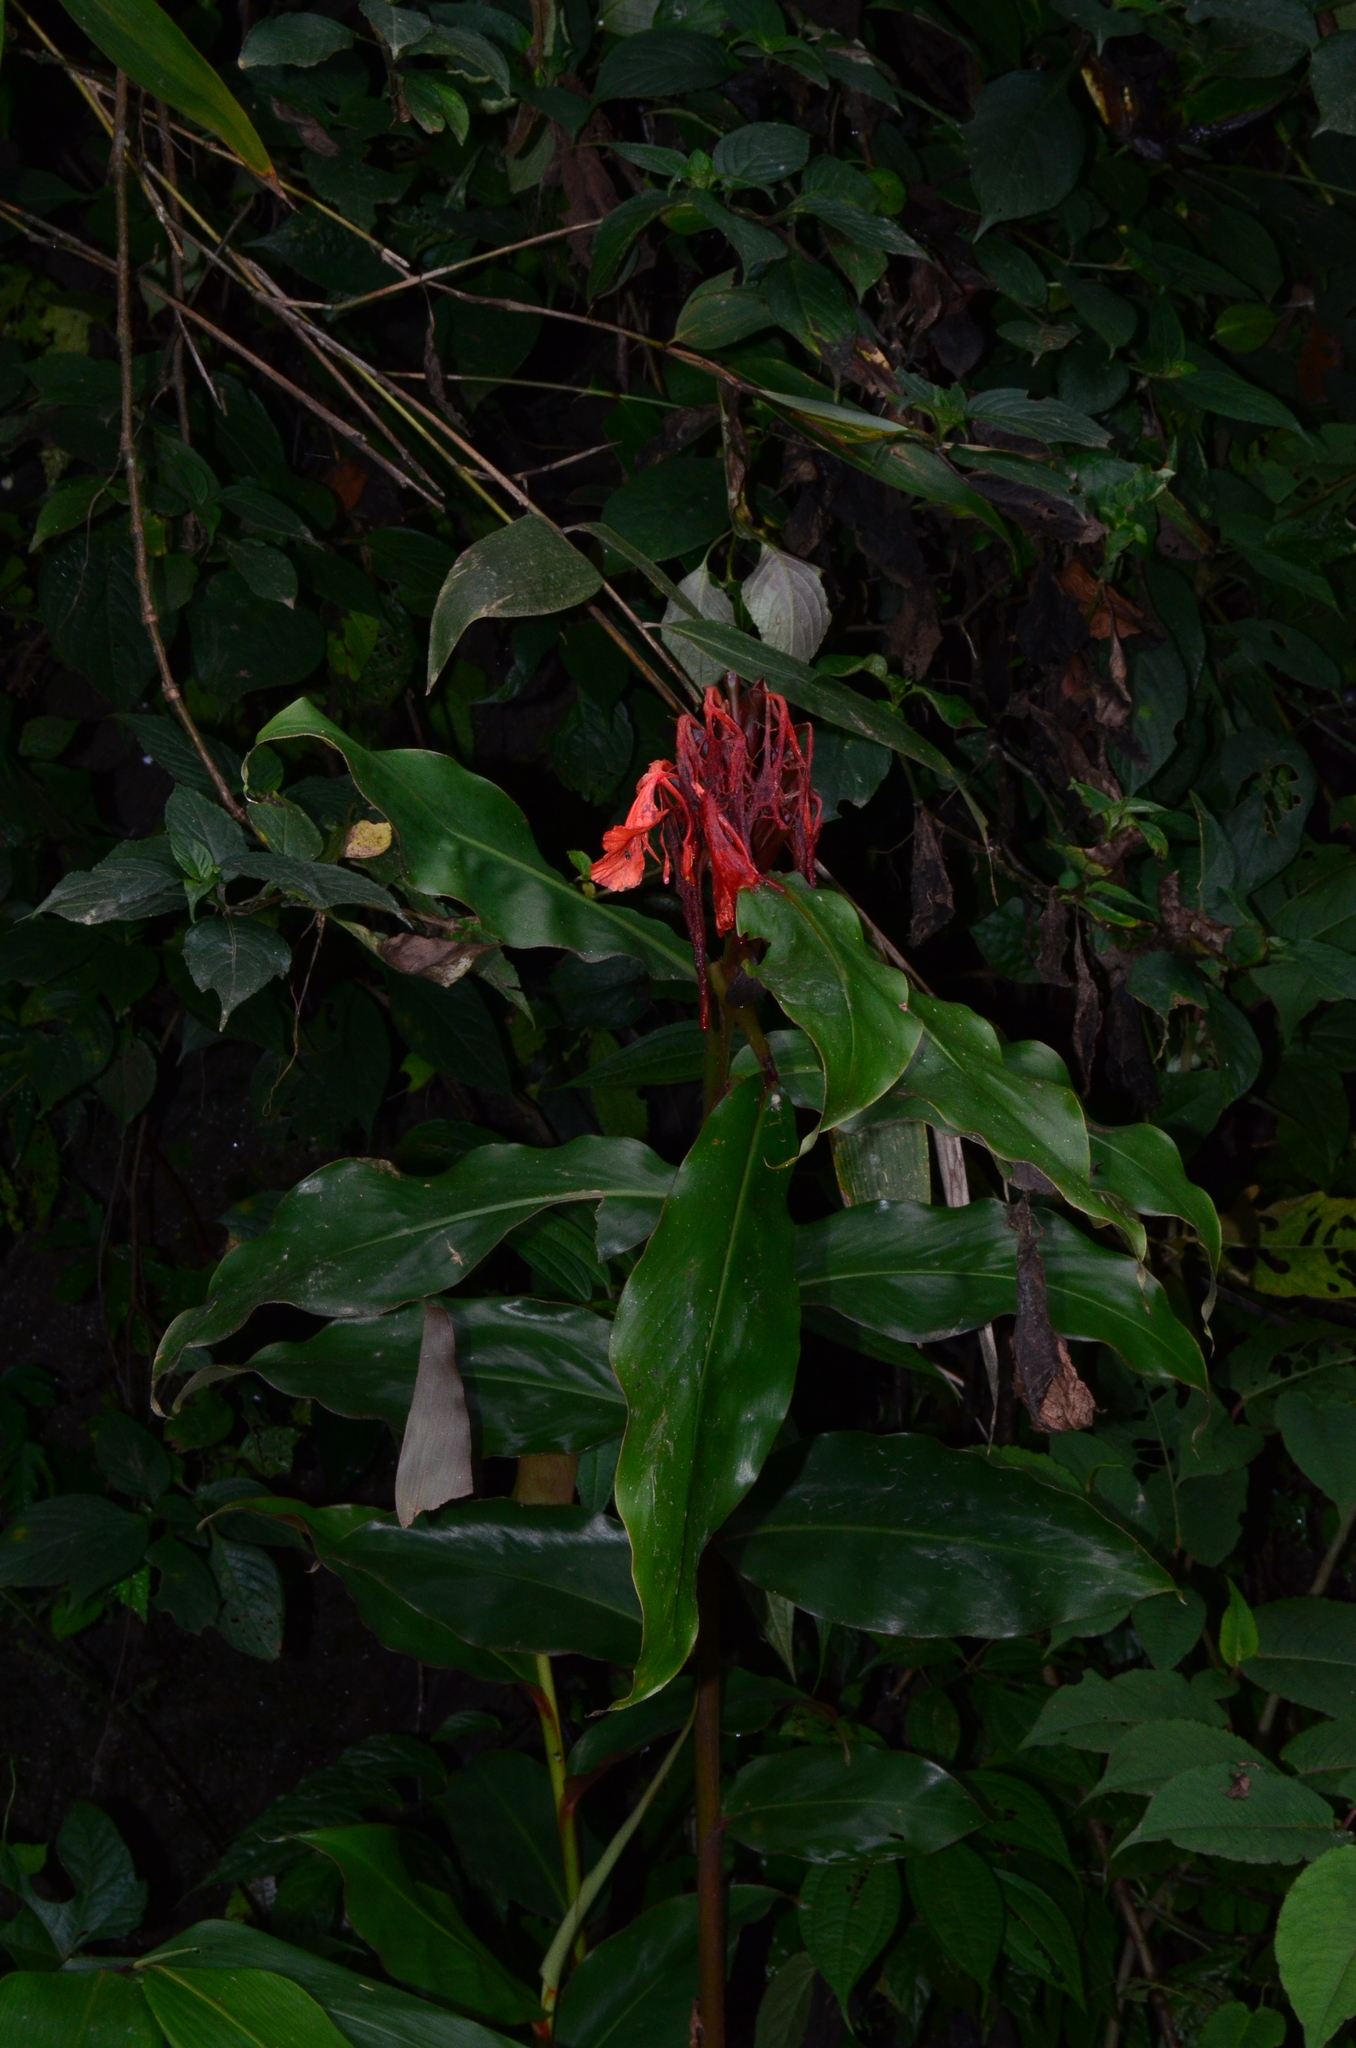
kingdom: Plantae
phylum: Tracheophyta
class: Liliopsida
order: Zingiberales
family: Zingiberaceae
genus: Hedychium
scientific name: Hedychium greenii
